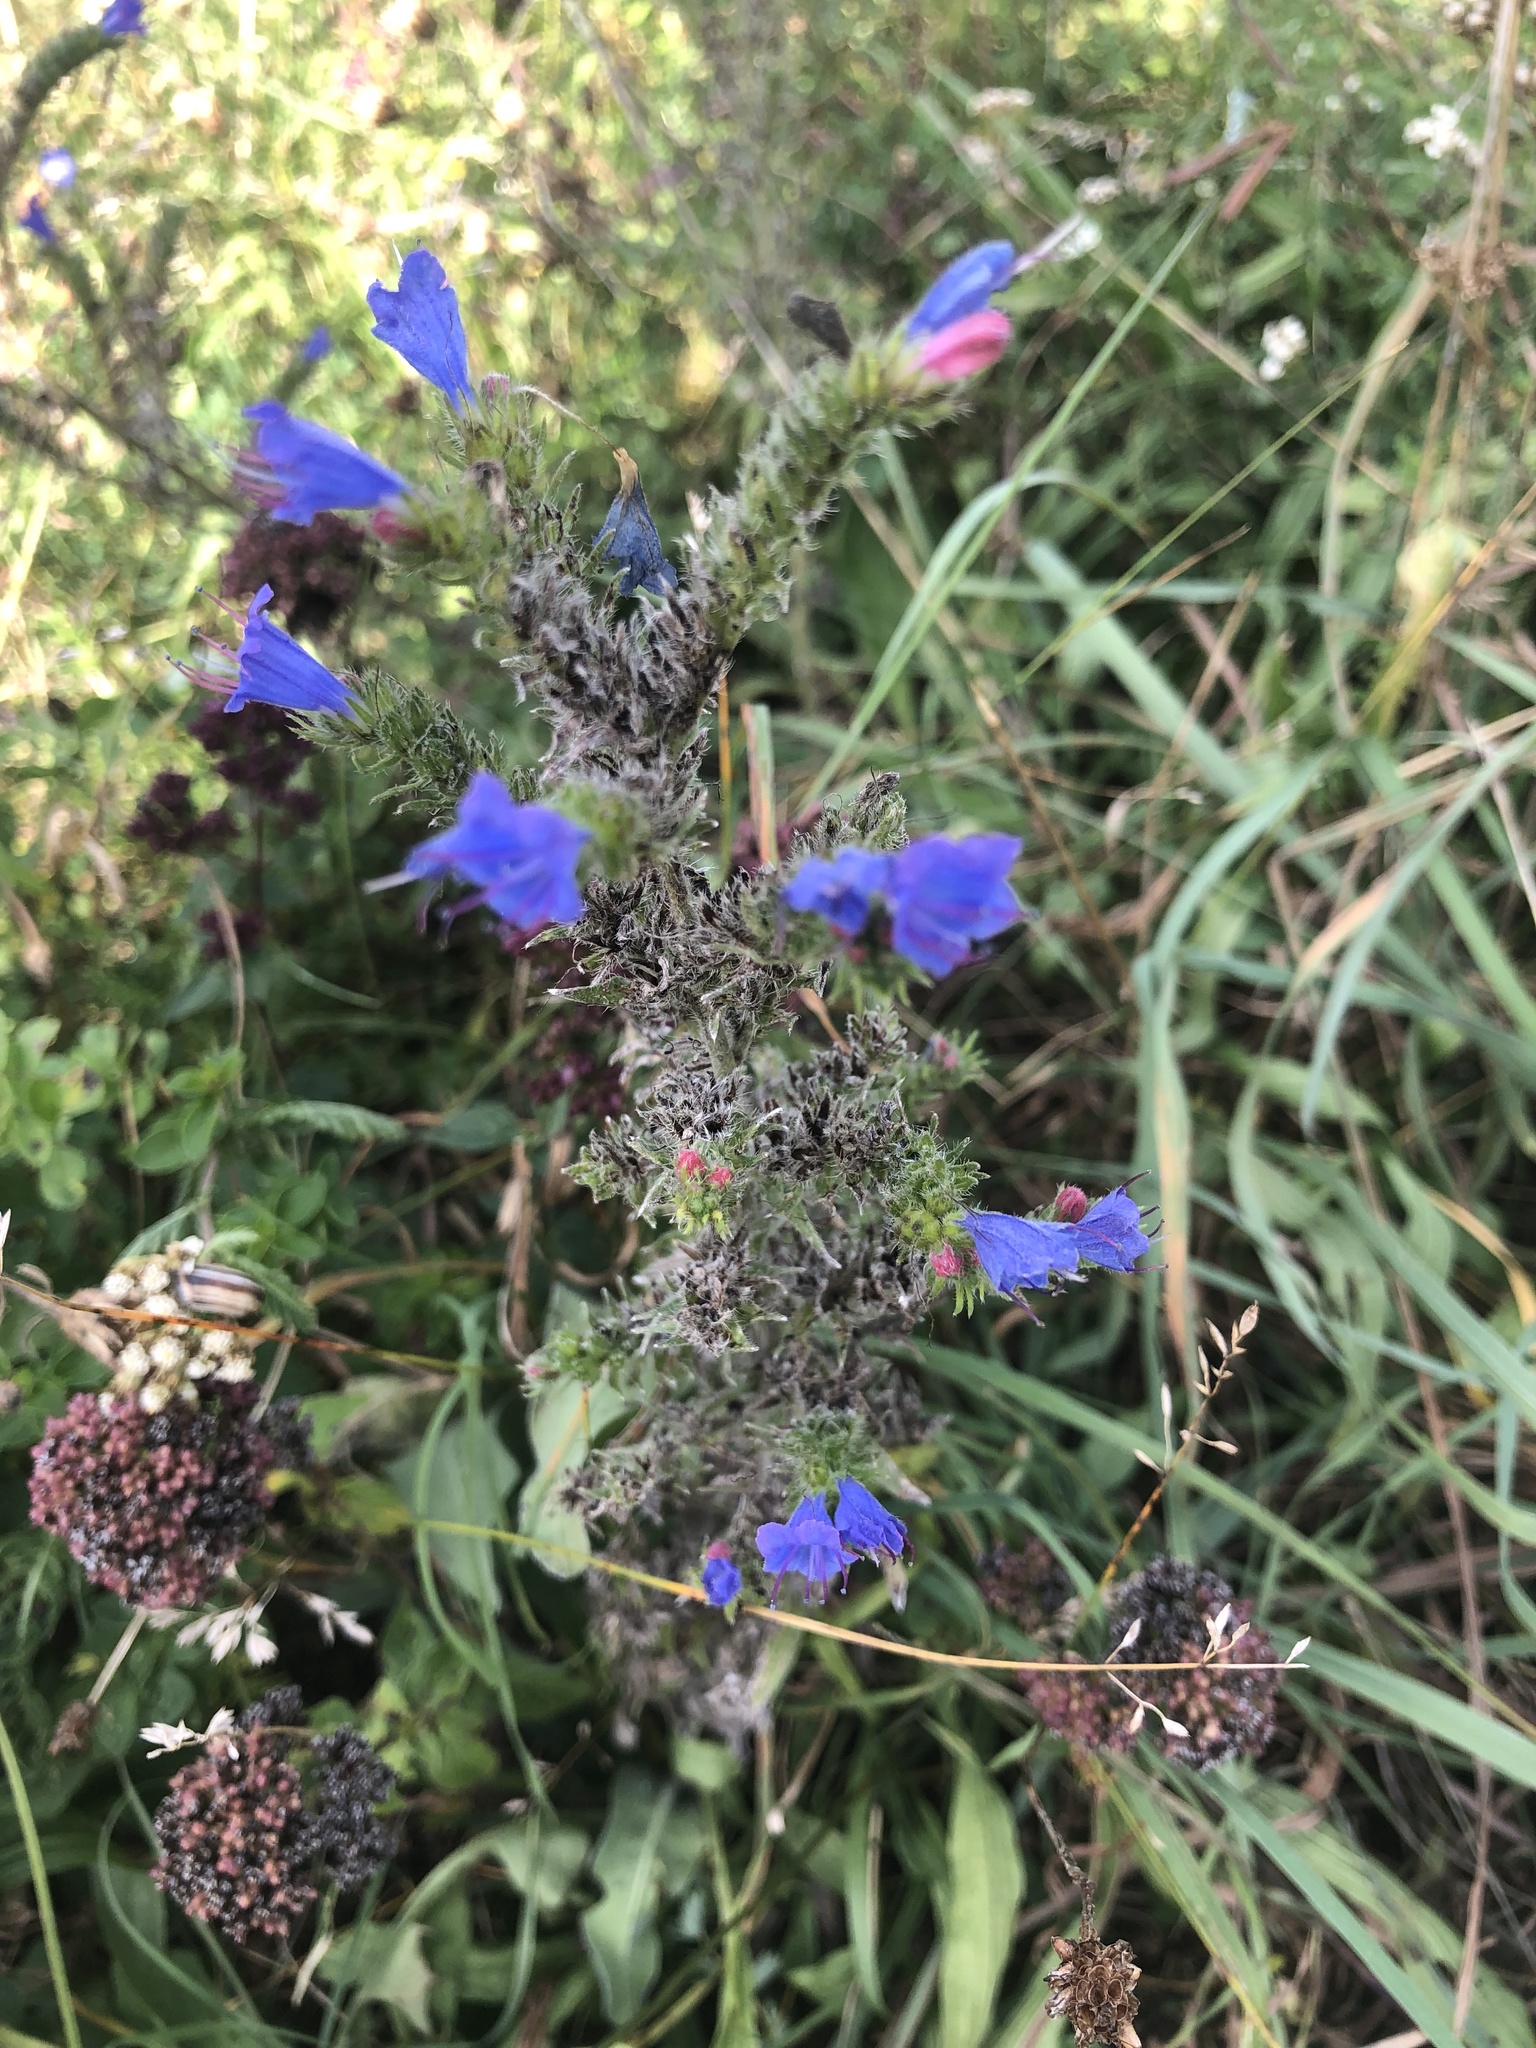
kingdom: Plantae
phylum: Tracheophyta
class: Magnoliopsida
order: Boraginales
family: Boraginaceae
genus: Echium
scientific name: Echium vulgare
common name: Common viper's bugloss
